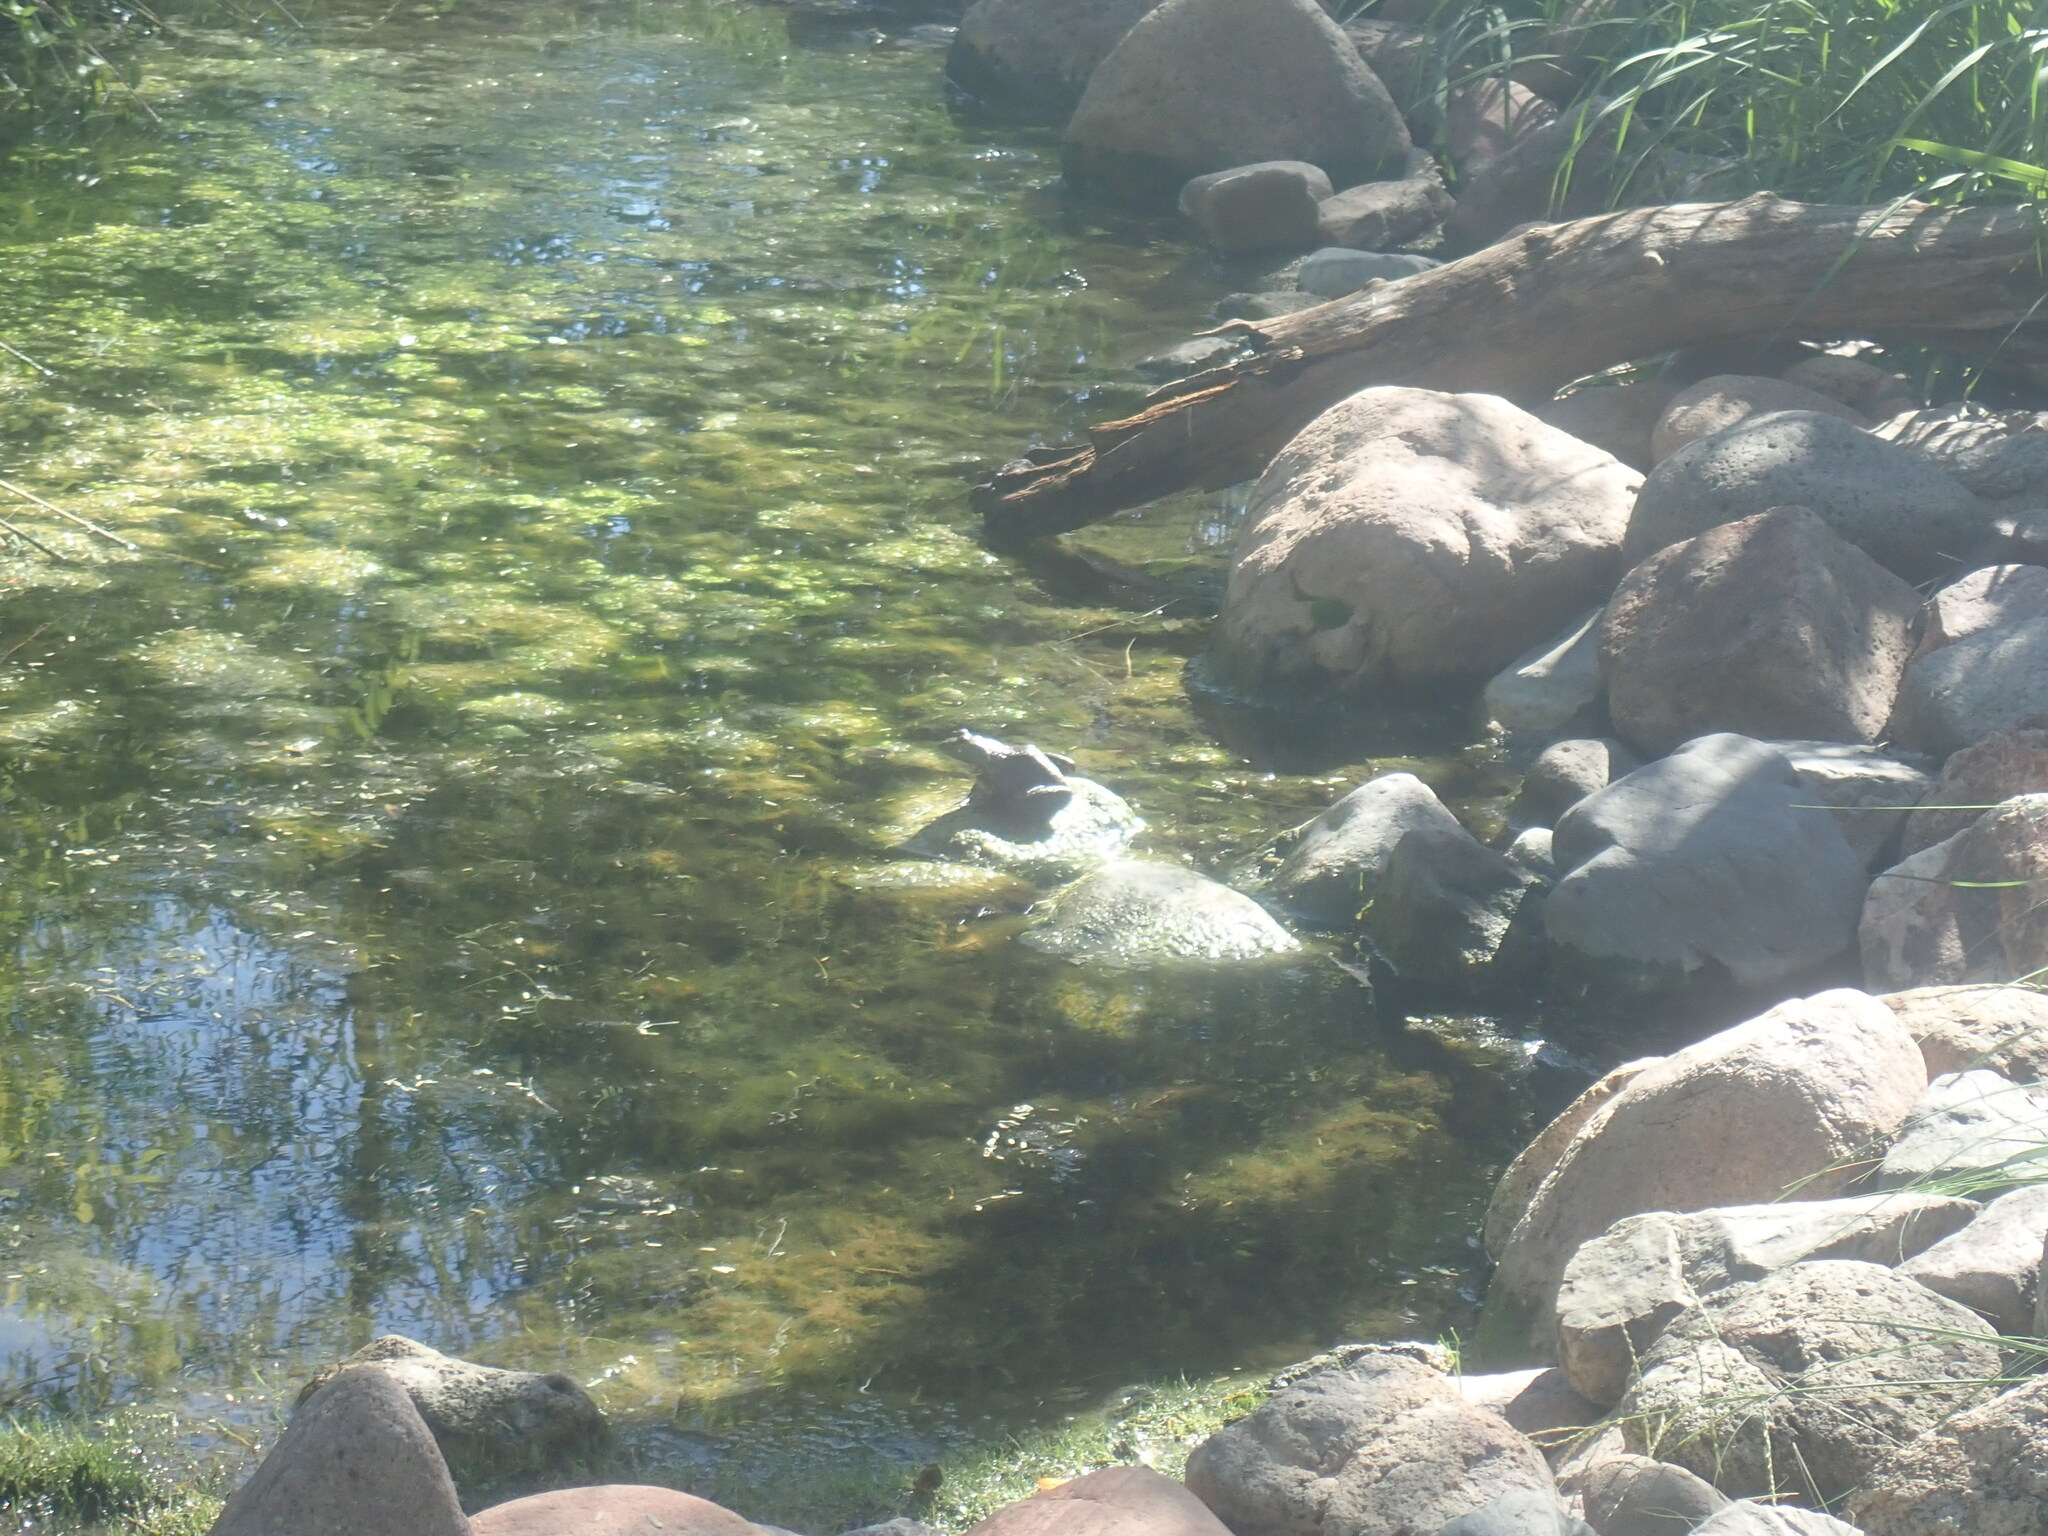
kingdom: Animalia
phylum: Chordata
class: Amphibia
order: Anura
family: Ranidae
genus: Lithobates
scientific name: Lithobates catesbeianus
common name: American bullfrog
